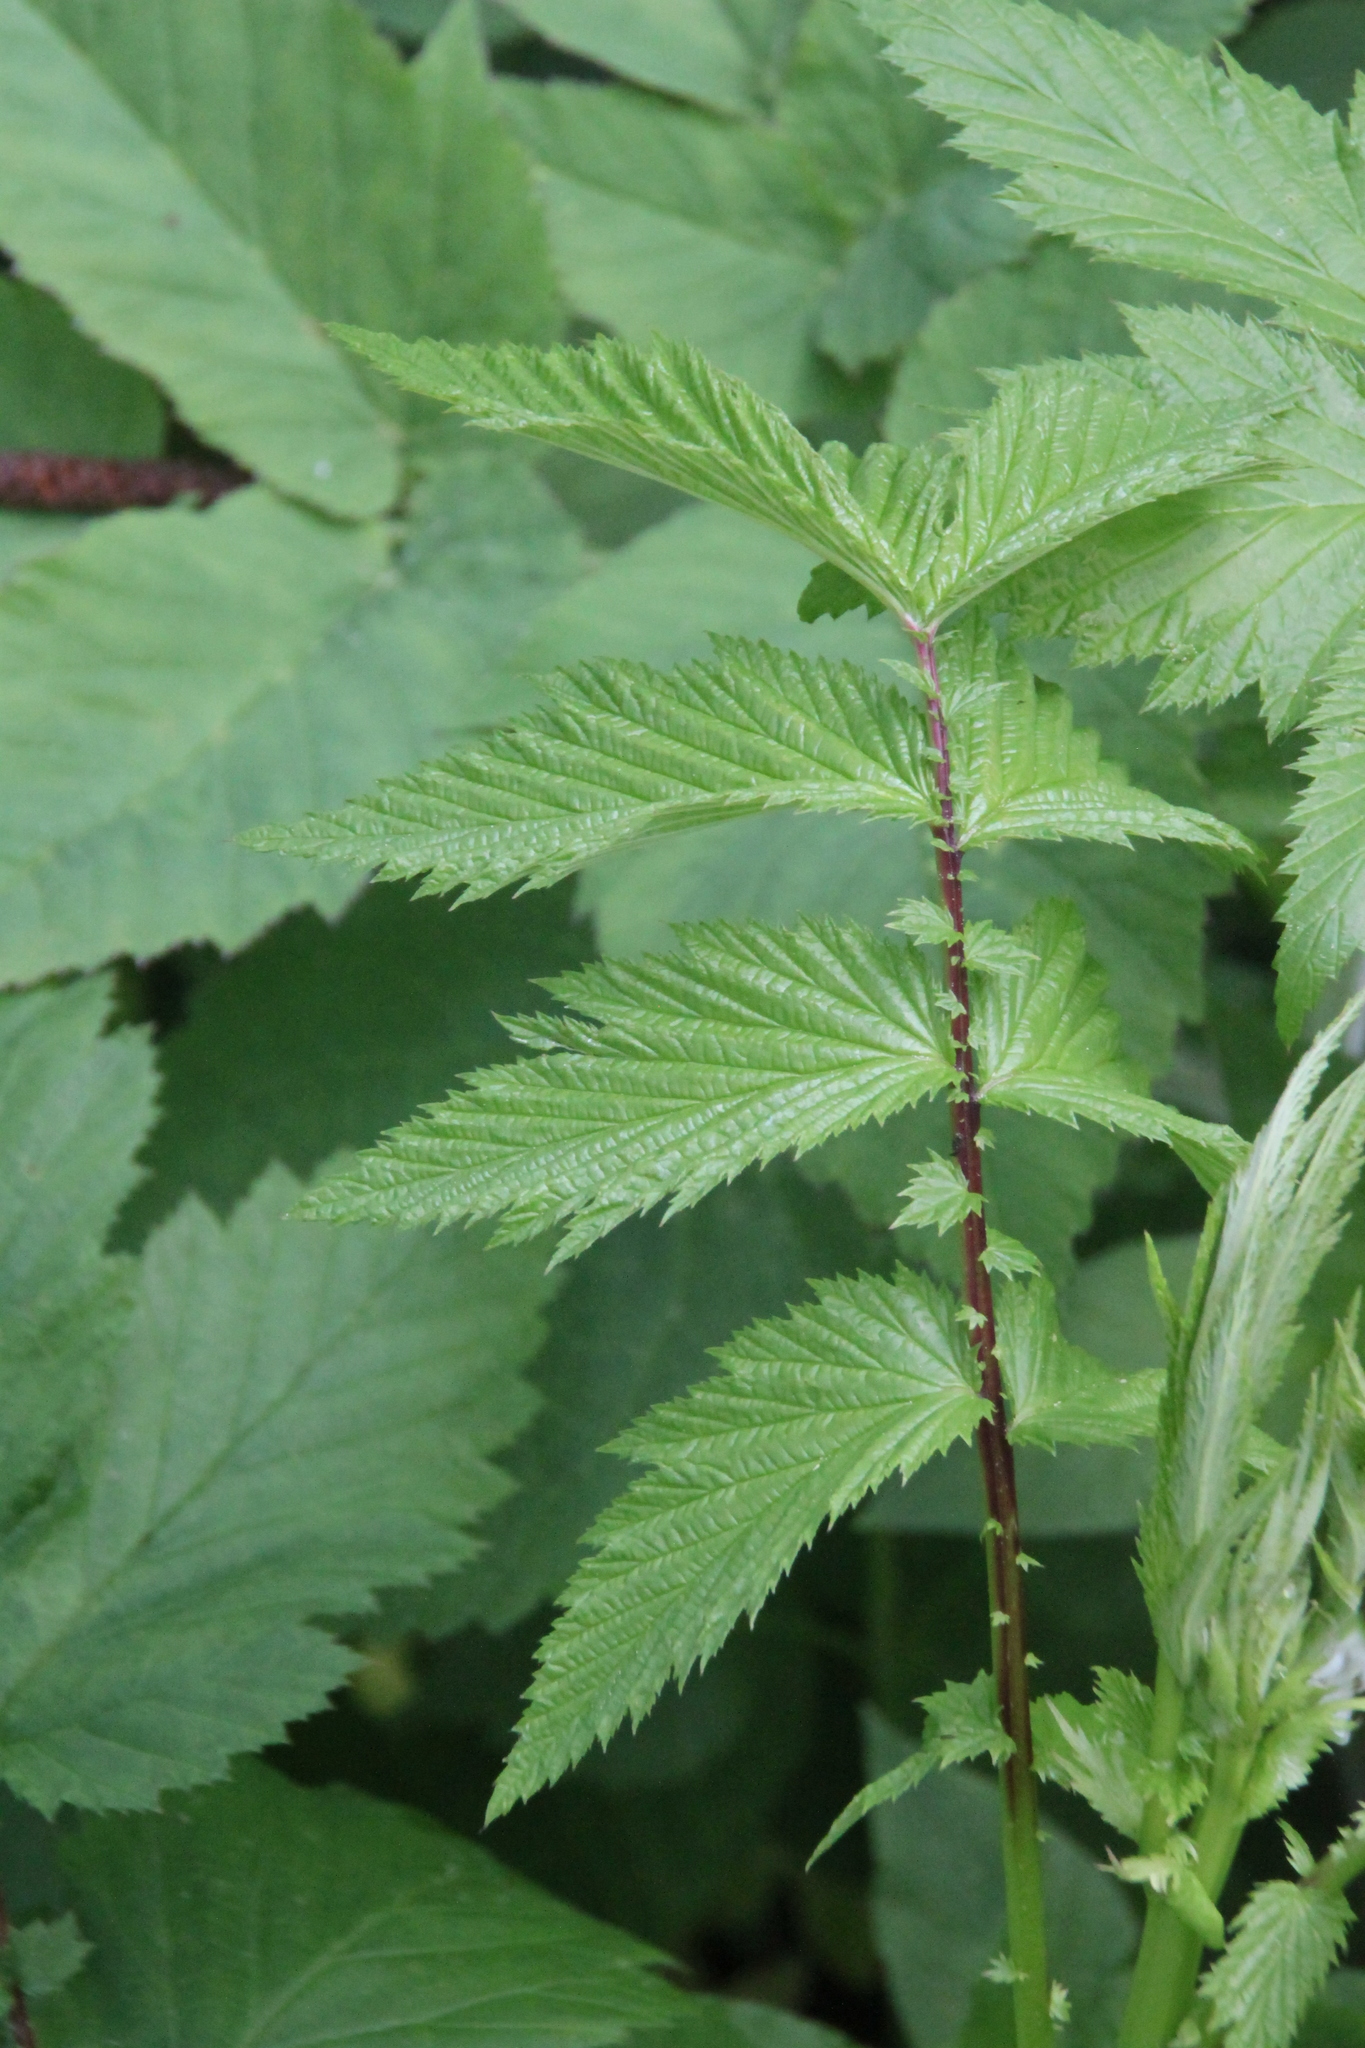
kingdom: Plantae
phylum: Tracheophyta
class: Magnoliopsida
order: Rosales
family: Rosaceae
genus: Filipendula
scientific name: Filipendula ulmaria
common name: Meadowsweet
